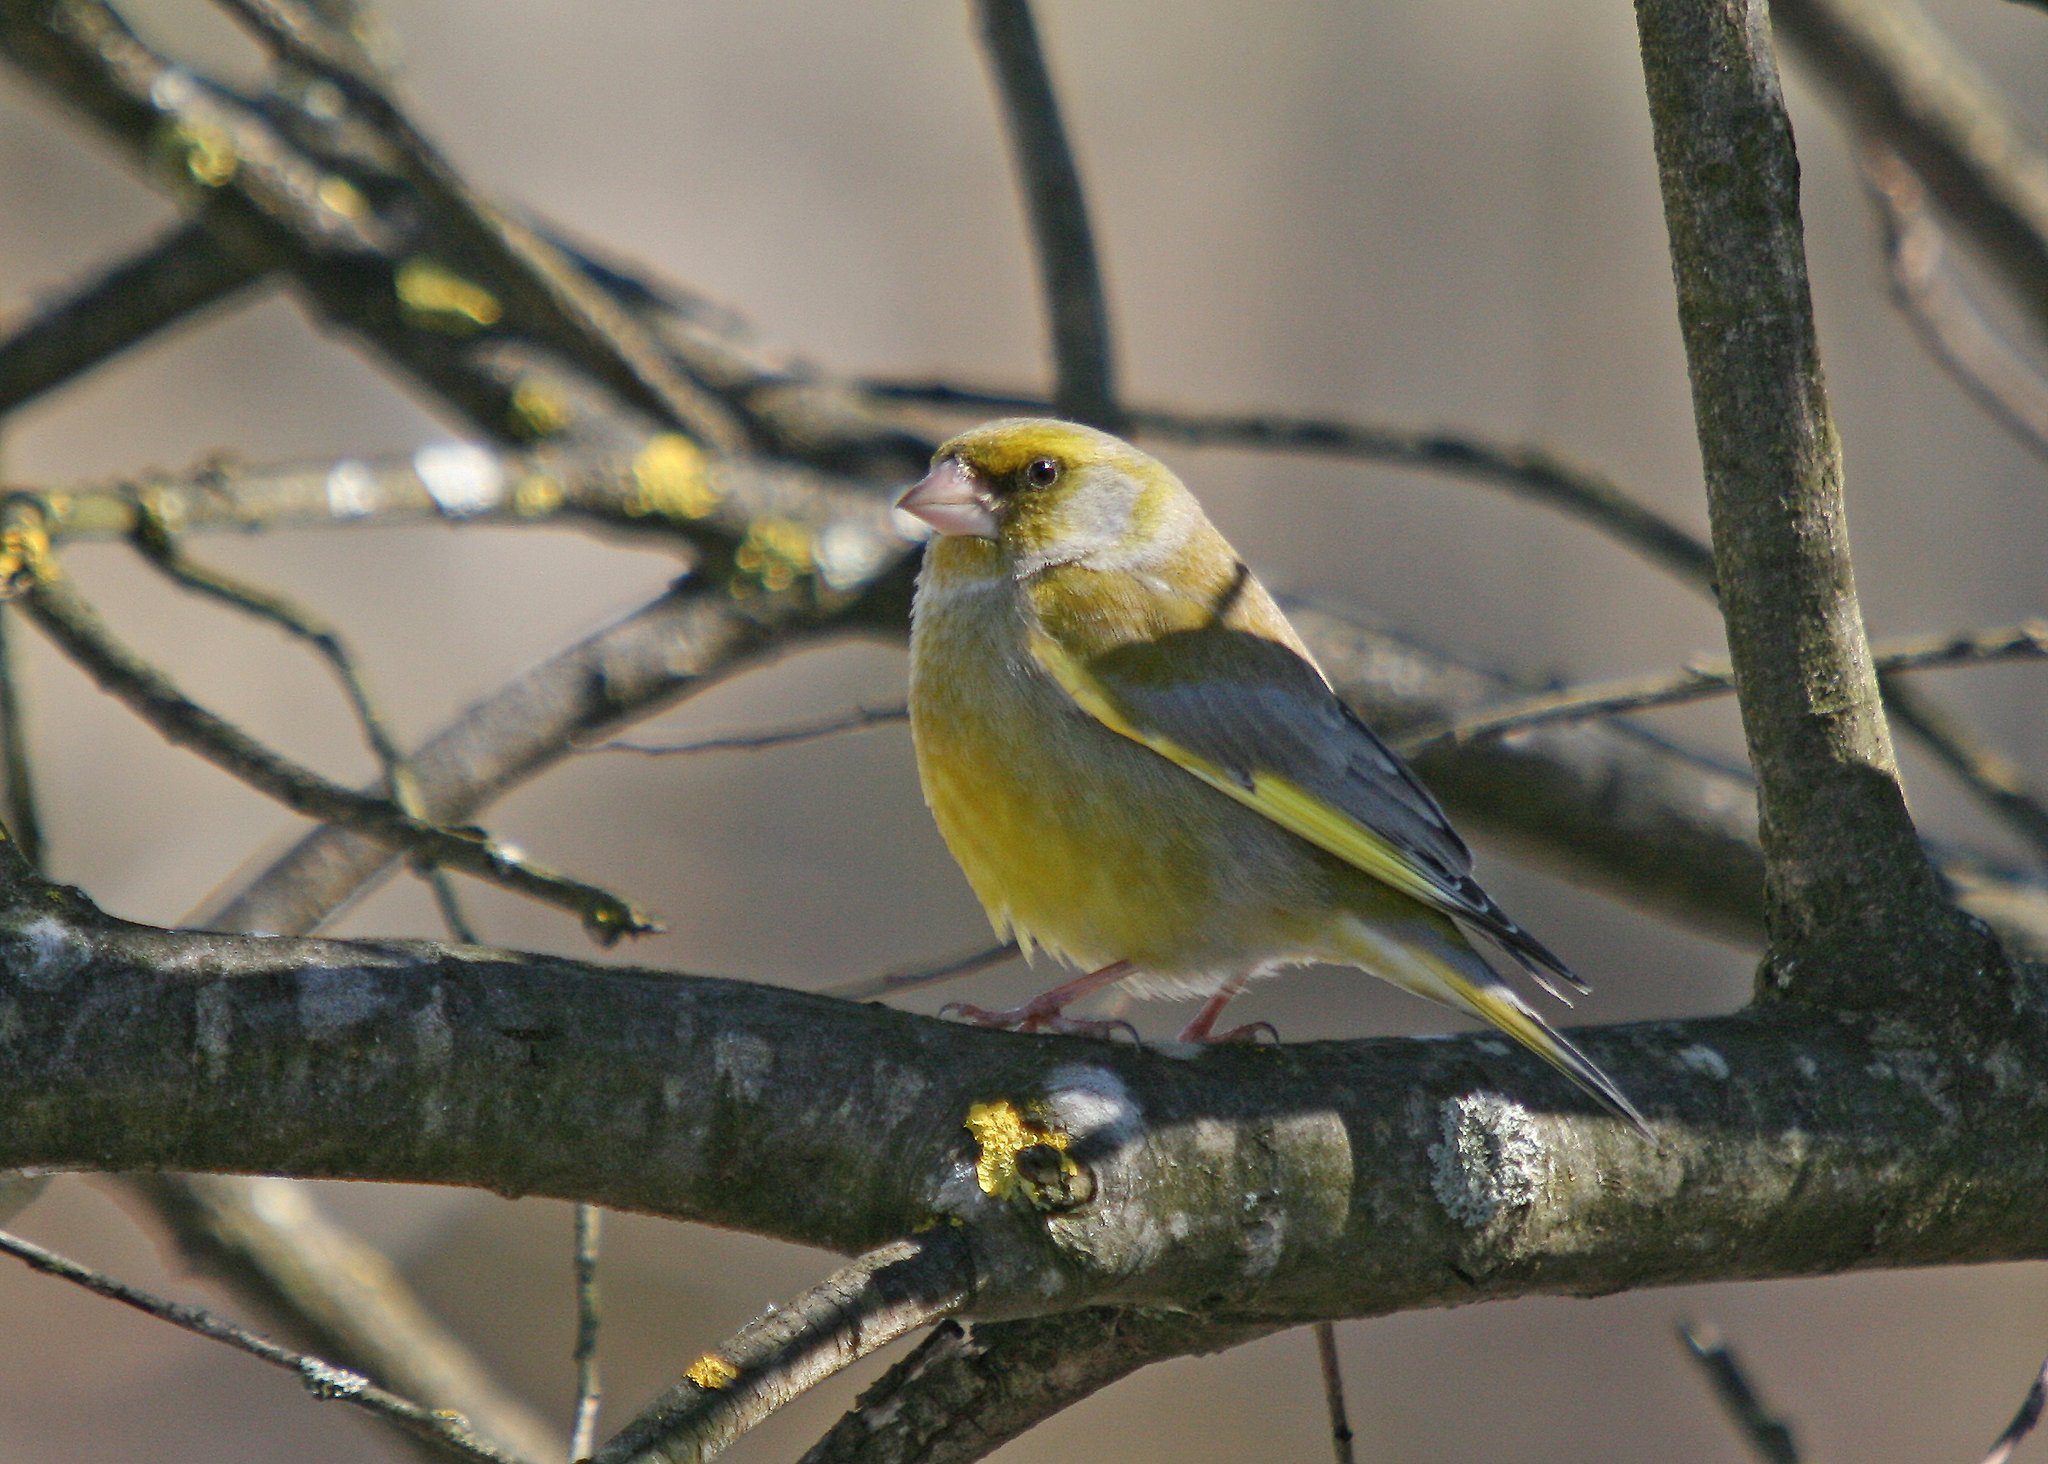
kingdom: Plantae
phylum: Tracheophyta
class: Liliopsida
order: Poales
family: Poaceae
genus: Chloris
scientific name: Chloris chloris
